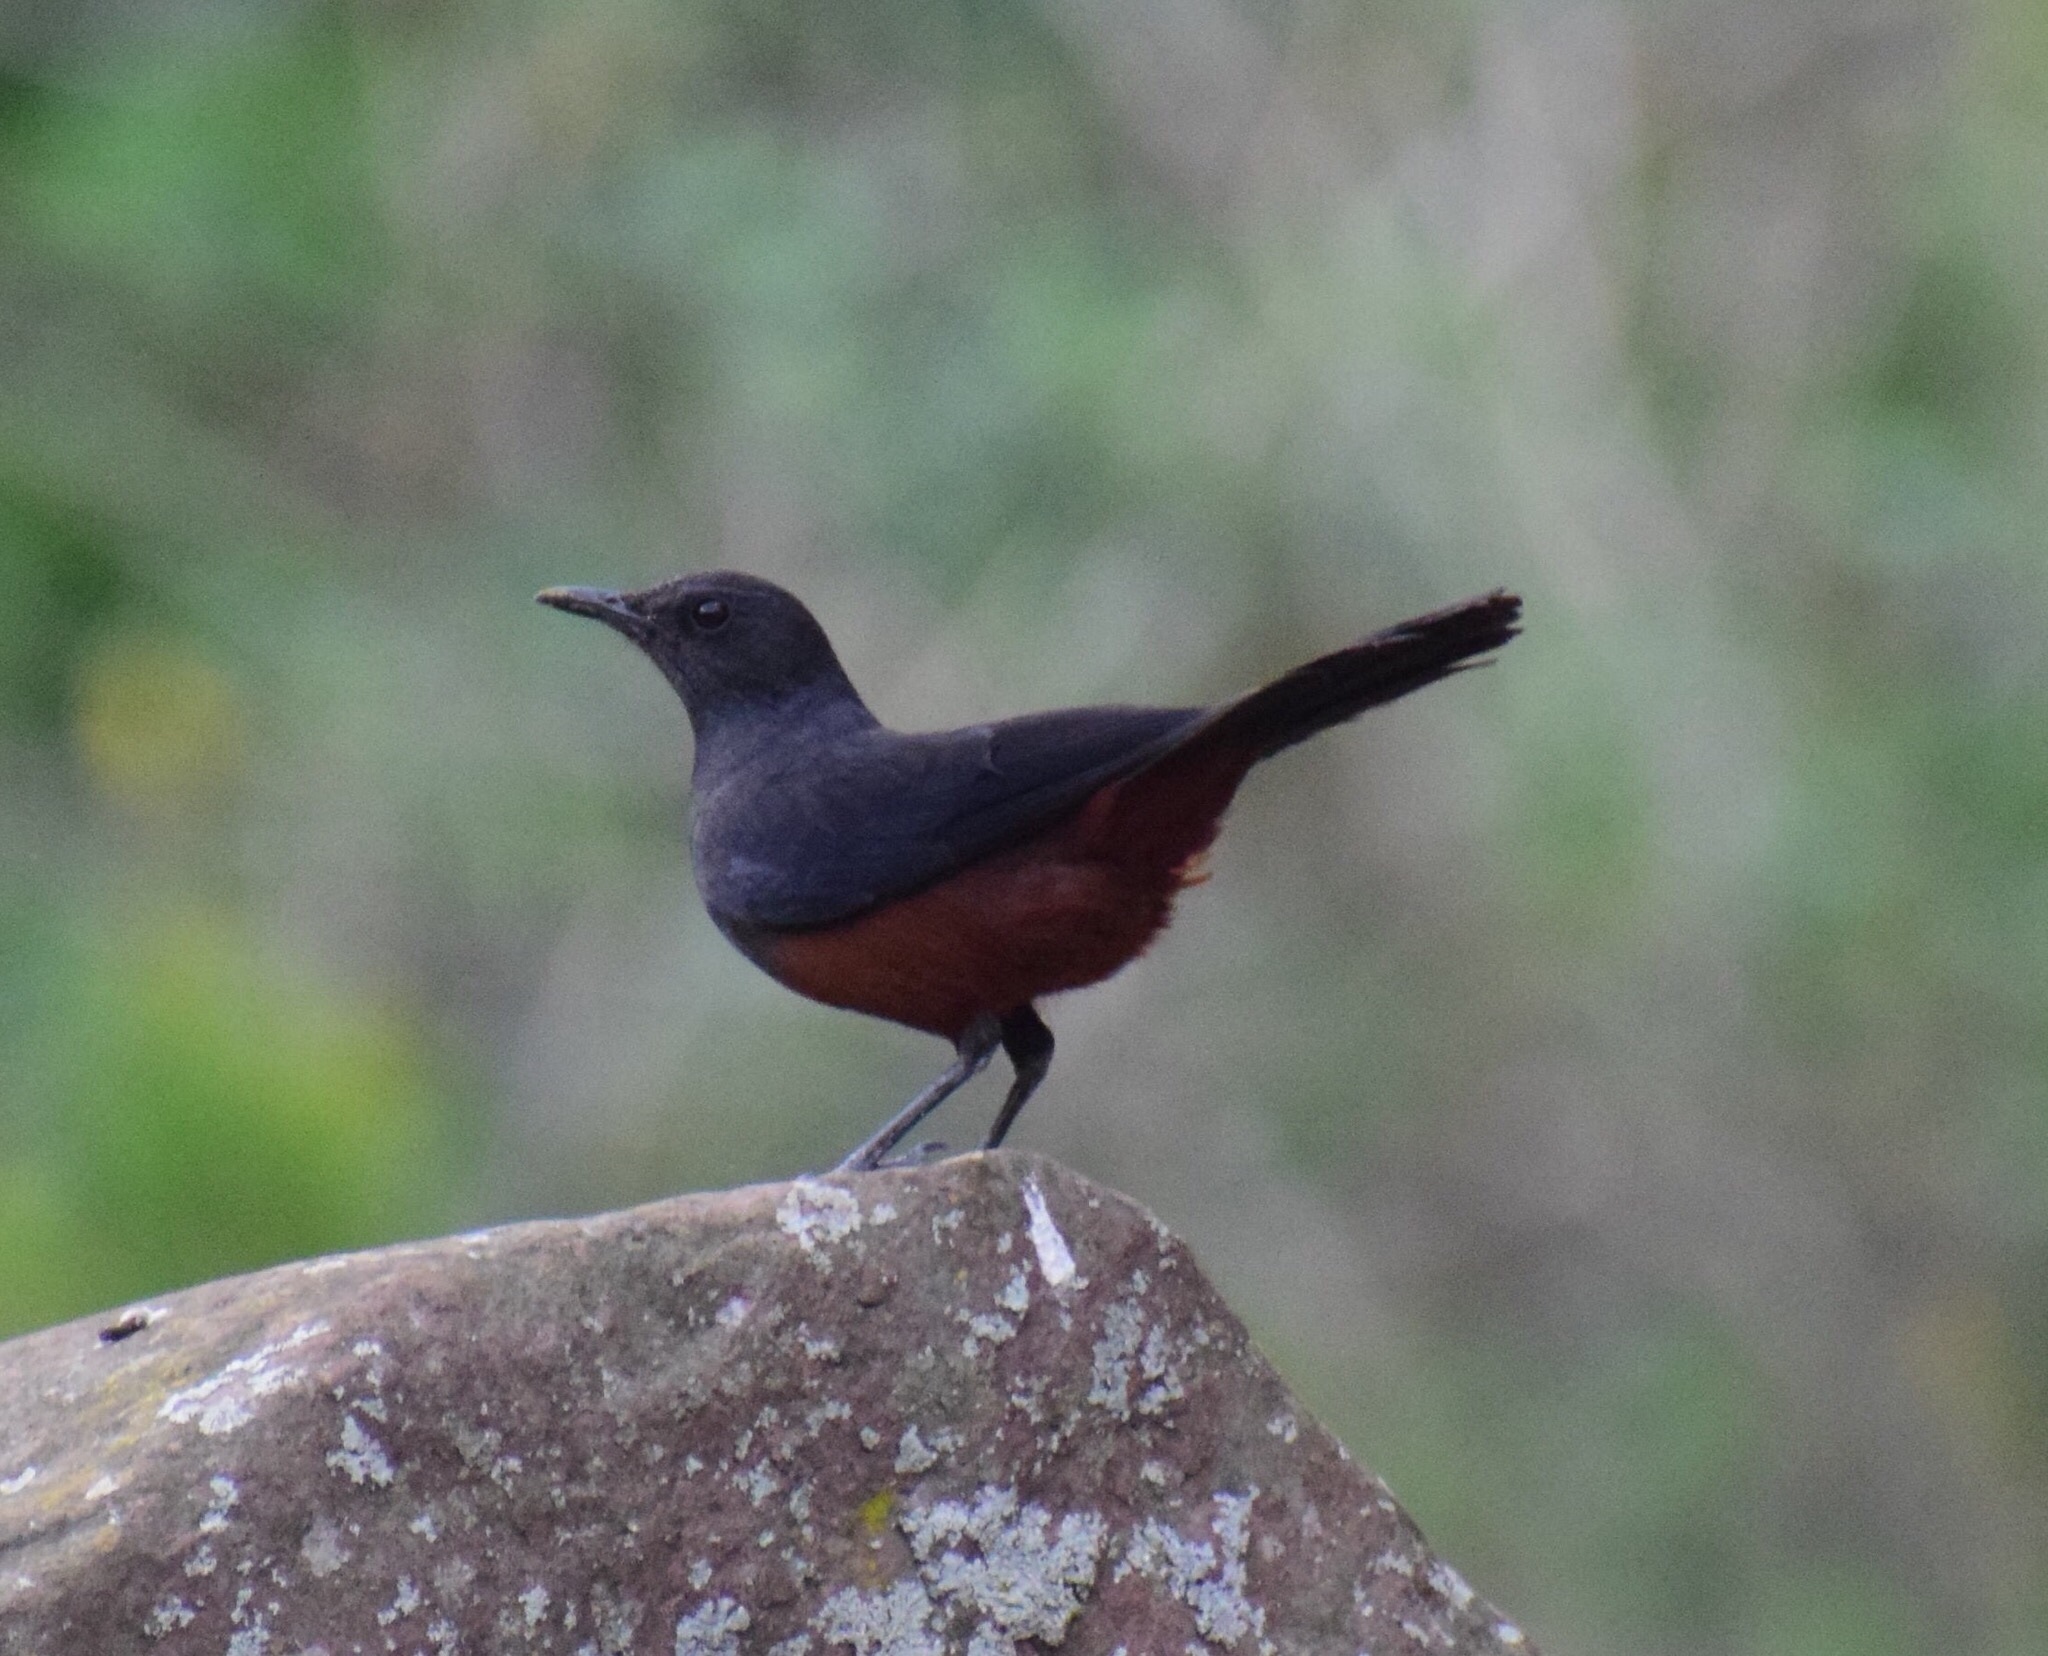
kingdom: Animalia
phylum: Chordata
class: Aves
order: Passeriformes
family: Muscicapidae
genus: Thamnolaea
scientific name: Thamnolaea cinnamomeiventris
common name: Mocking cliff chat
